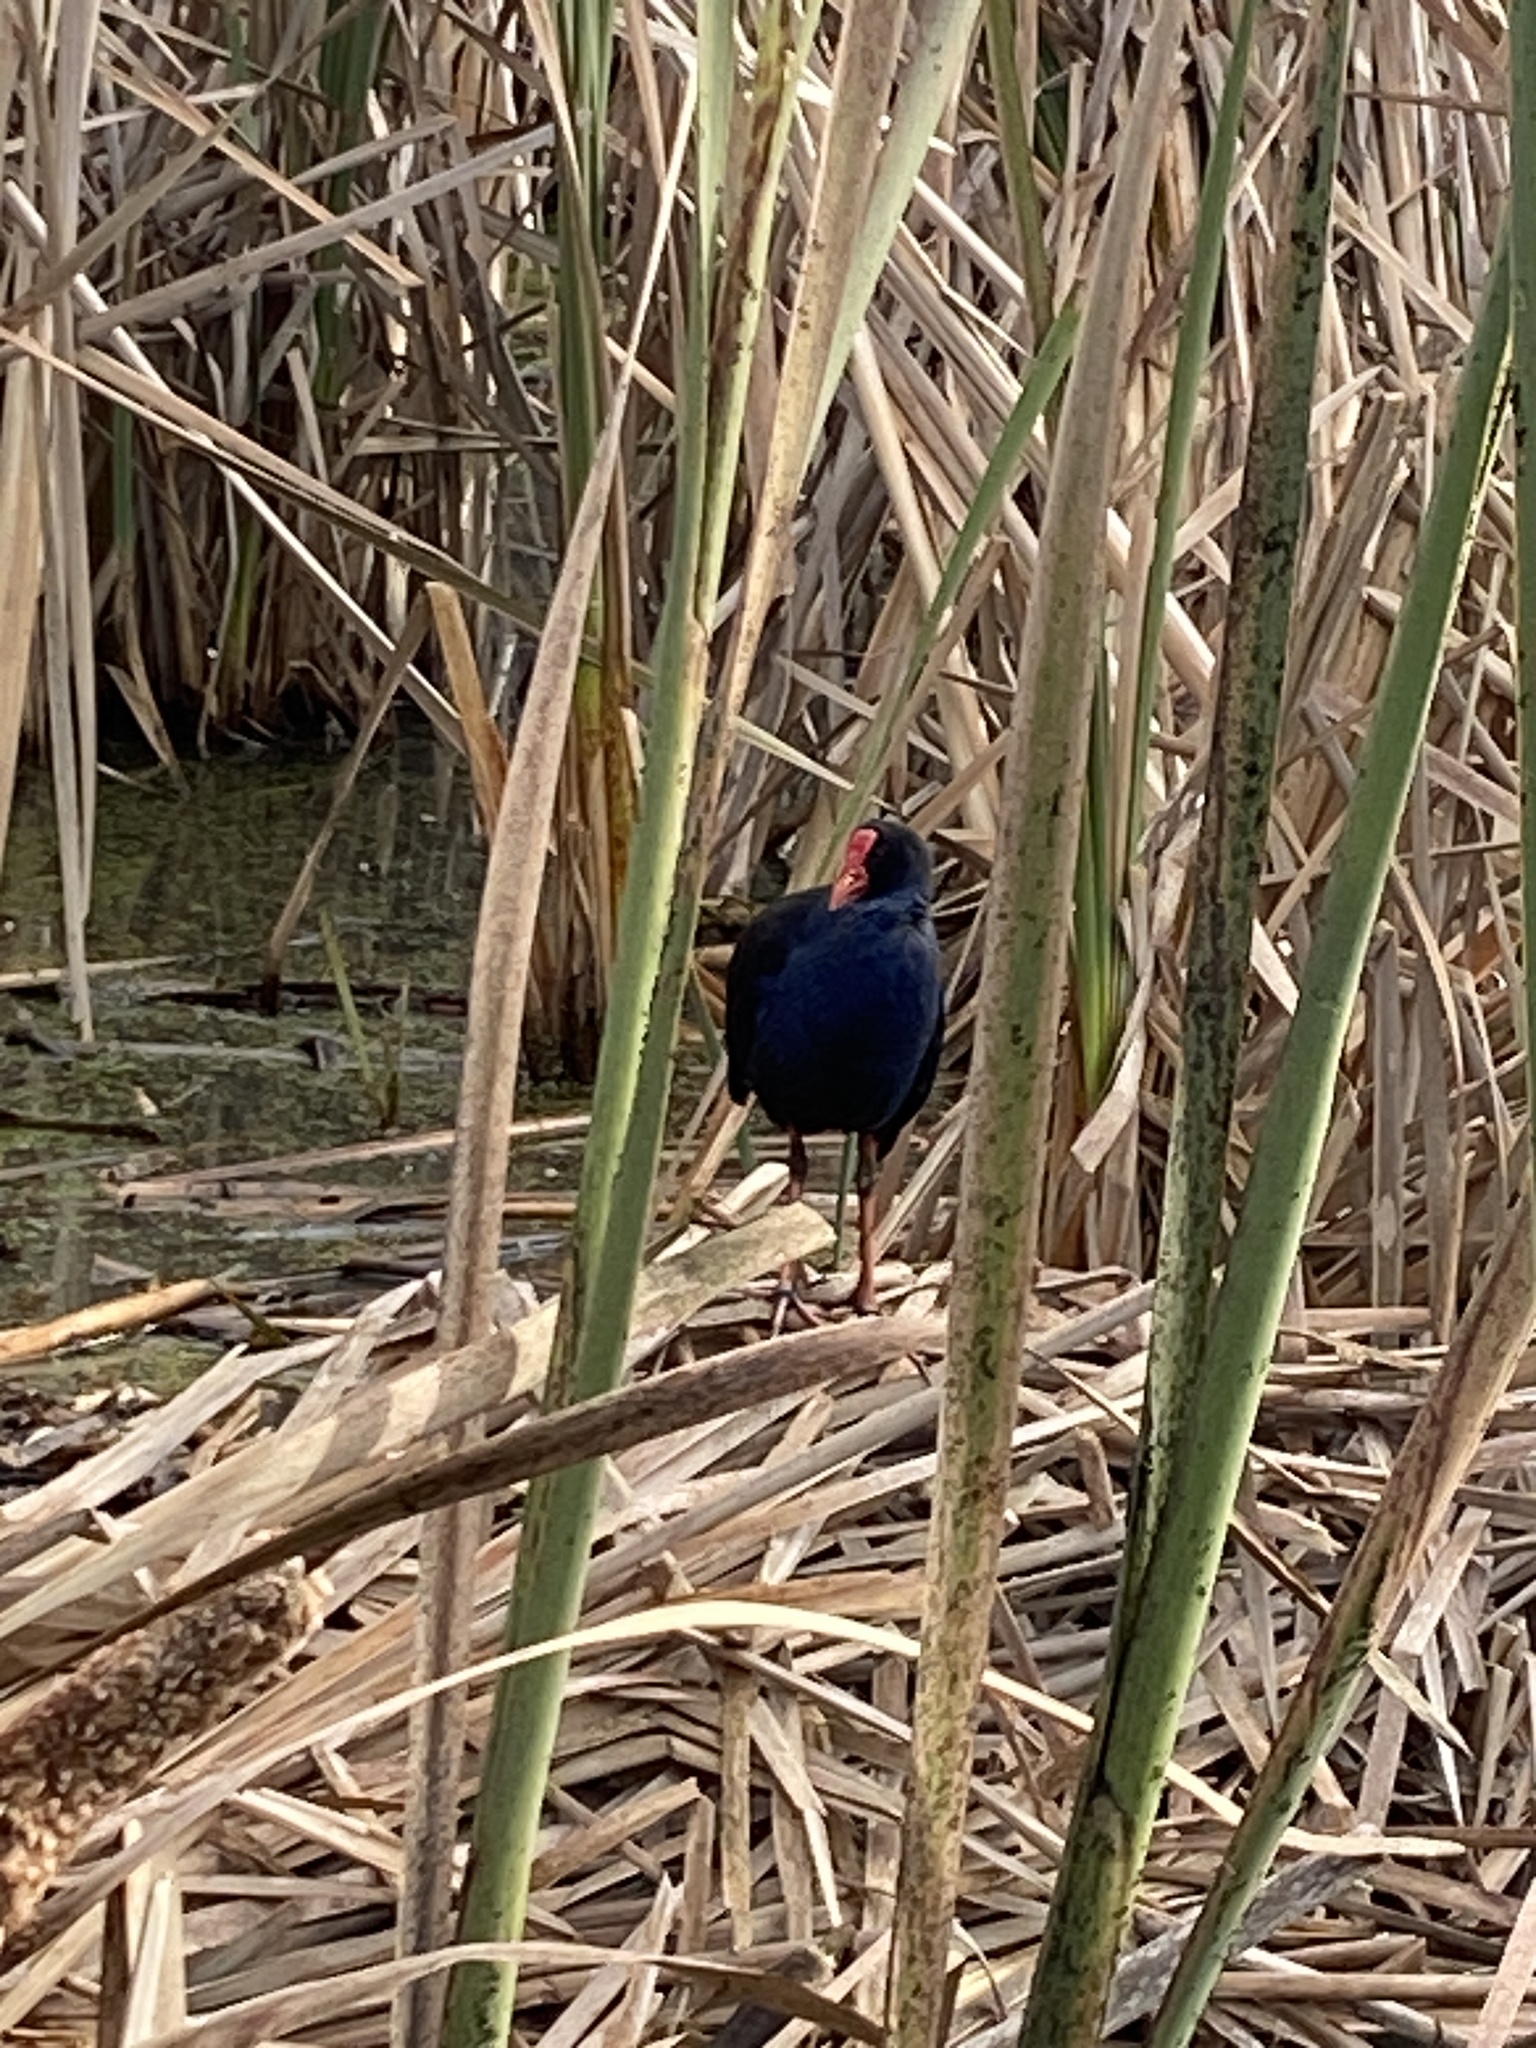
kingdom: Animalia
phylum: Chordata
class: Aves
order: Gruiformes
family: Rallidae
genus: Porphyrio
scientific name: Porphyrio melanotus
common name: Australasian swamphen
